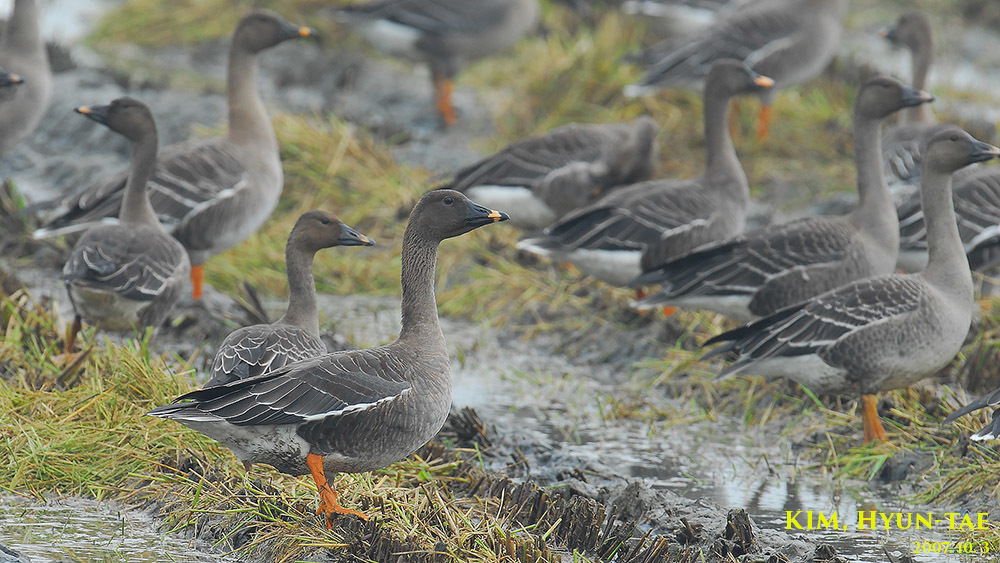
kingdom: Animalia
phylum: Chordata
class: Aves
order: Anseriformes
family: Anatidae
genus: Anser
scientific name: Anser fabalis
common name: Bean goose
